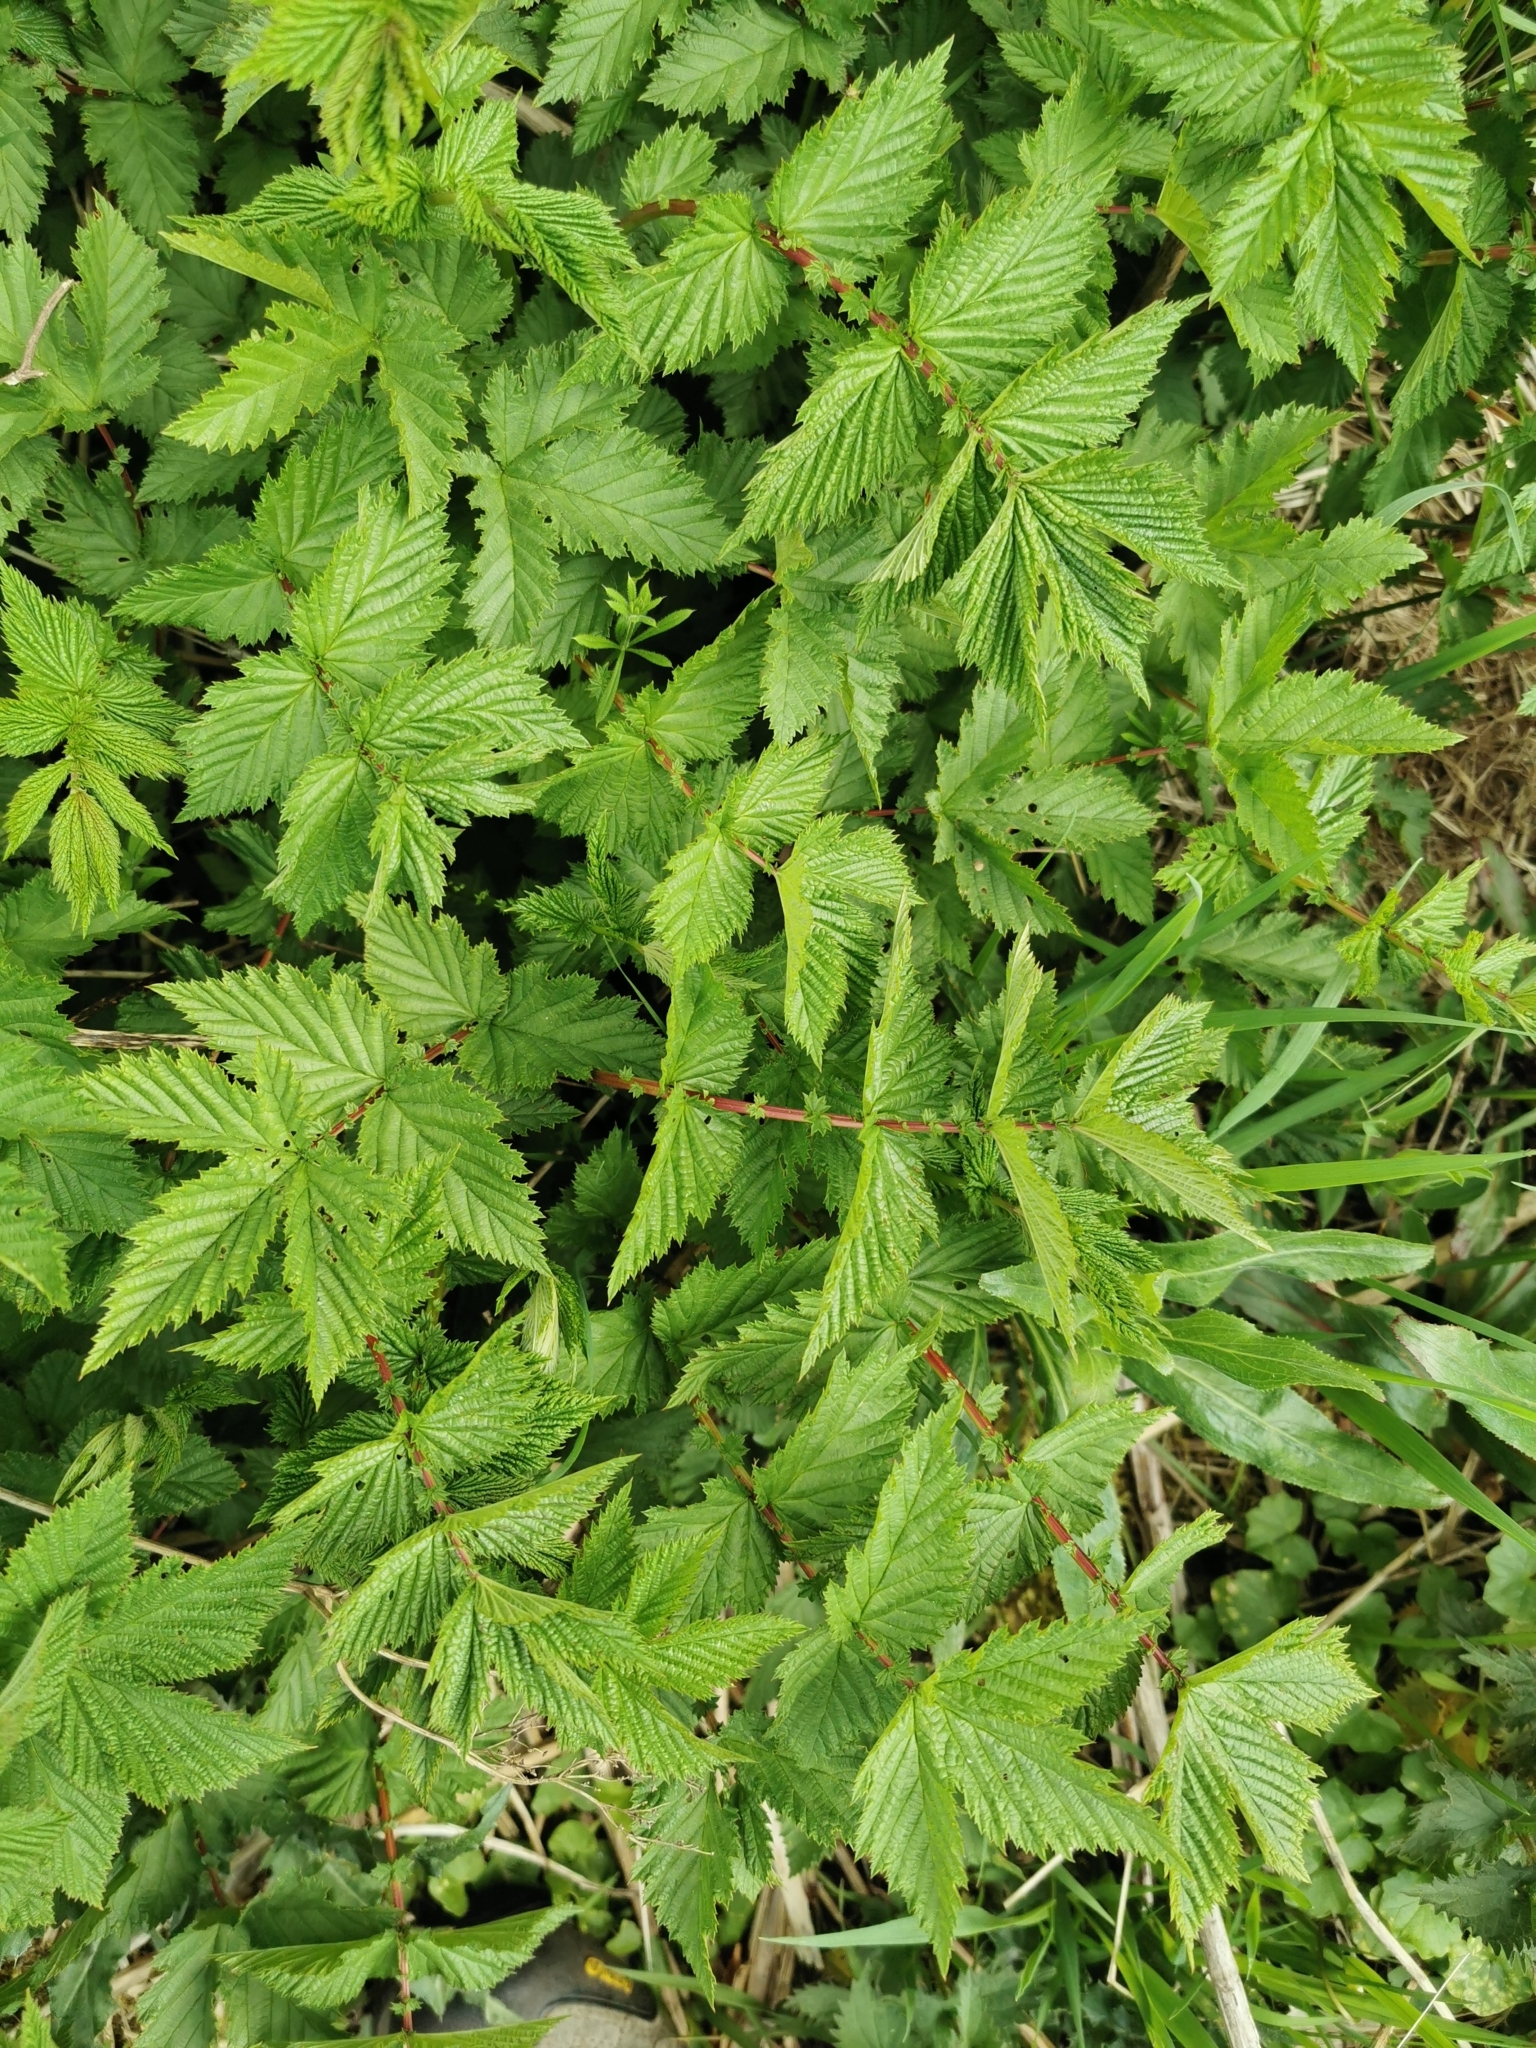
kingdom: Plantae
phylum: Tracheophyta
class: Magnoliopsida
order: Rosales
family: Rosaceae
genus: Filipendula
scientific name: Filipendula ulmaria
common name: Meadowsweet
